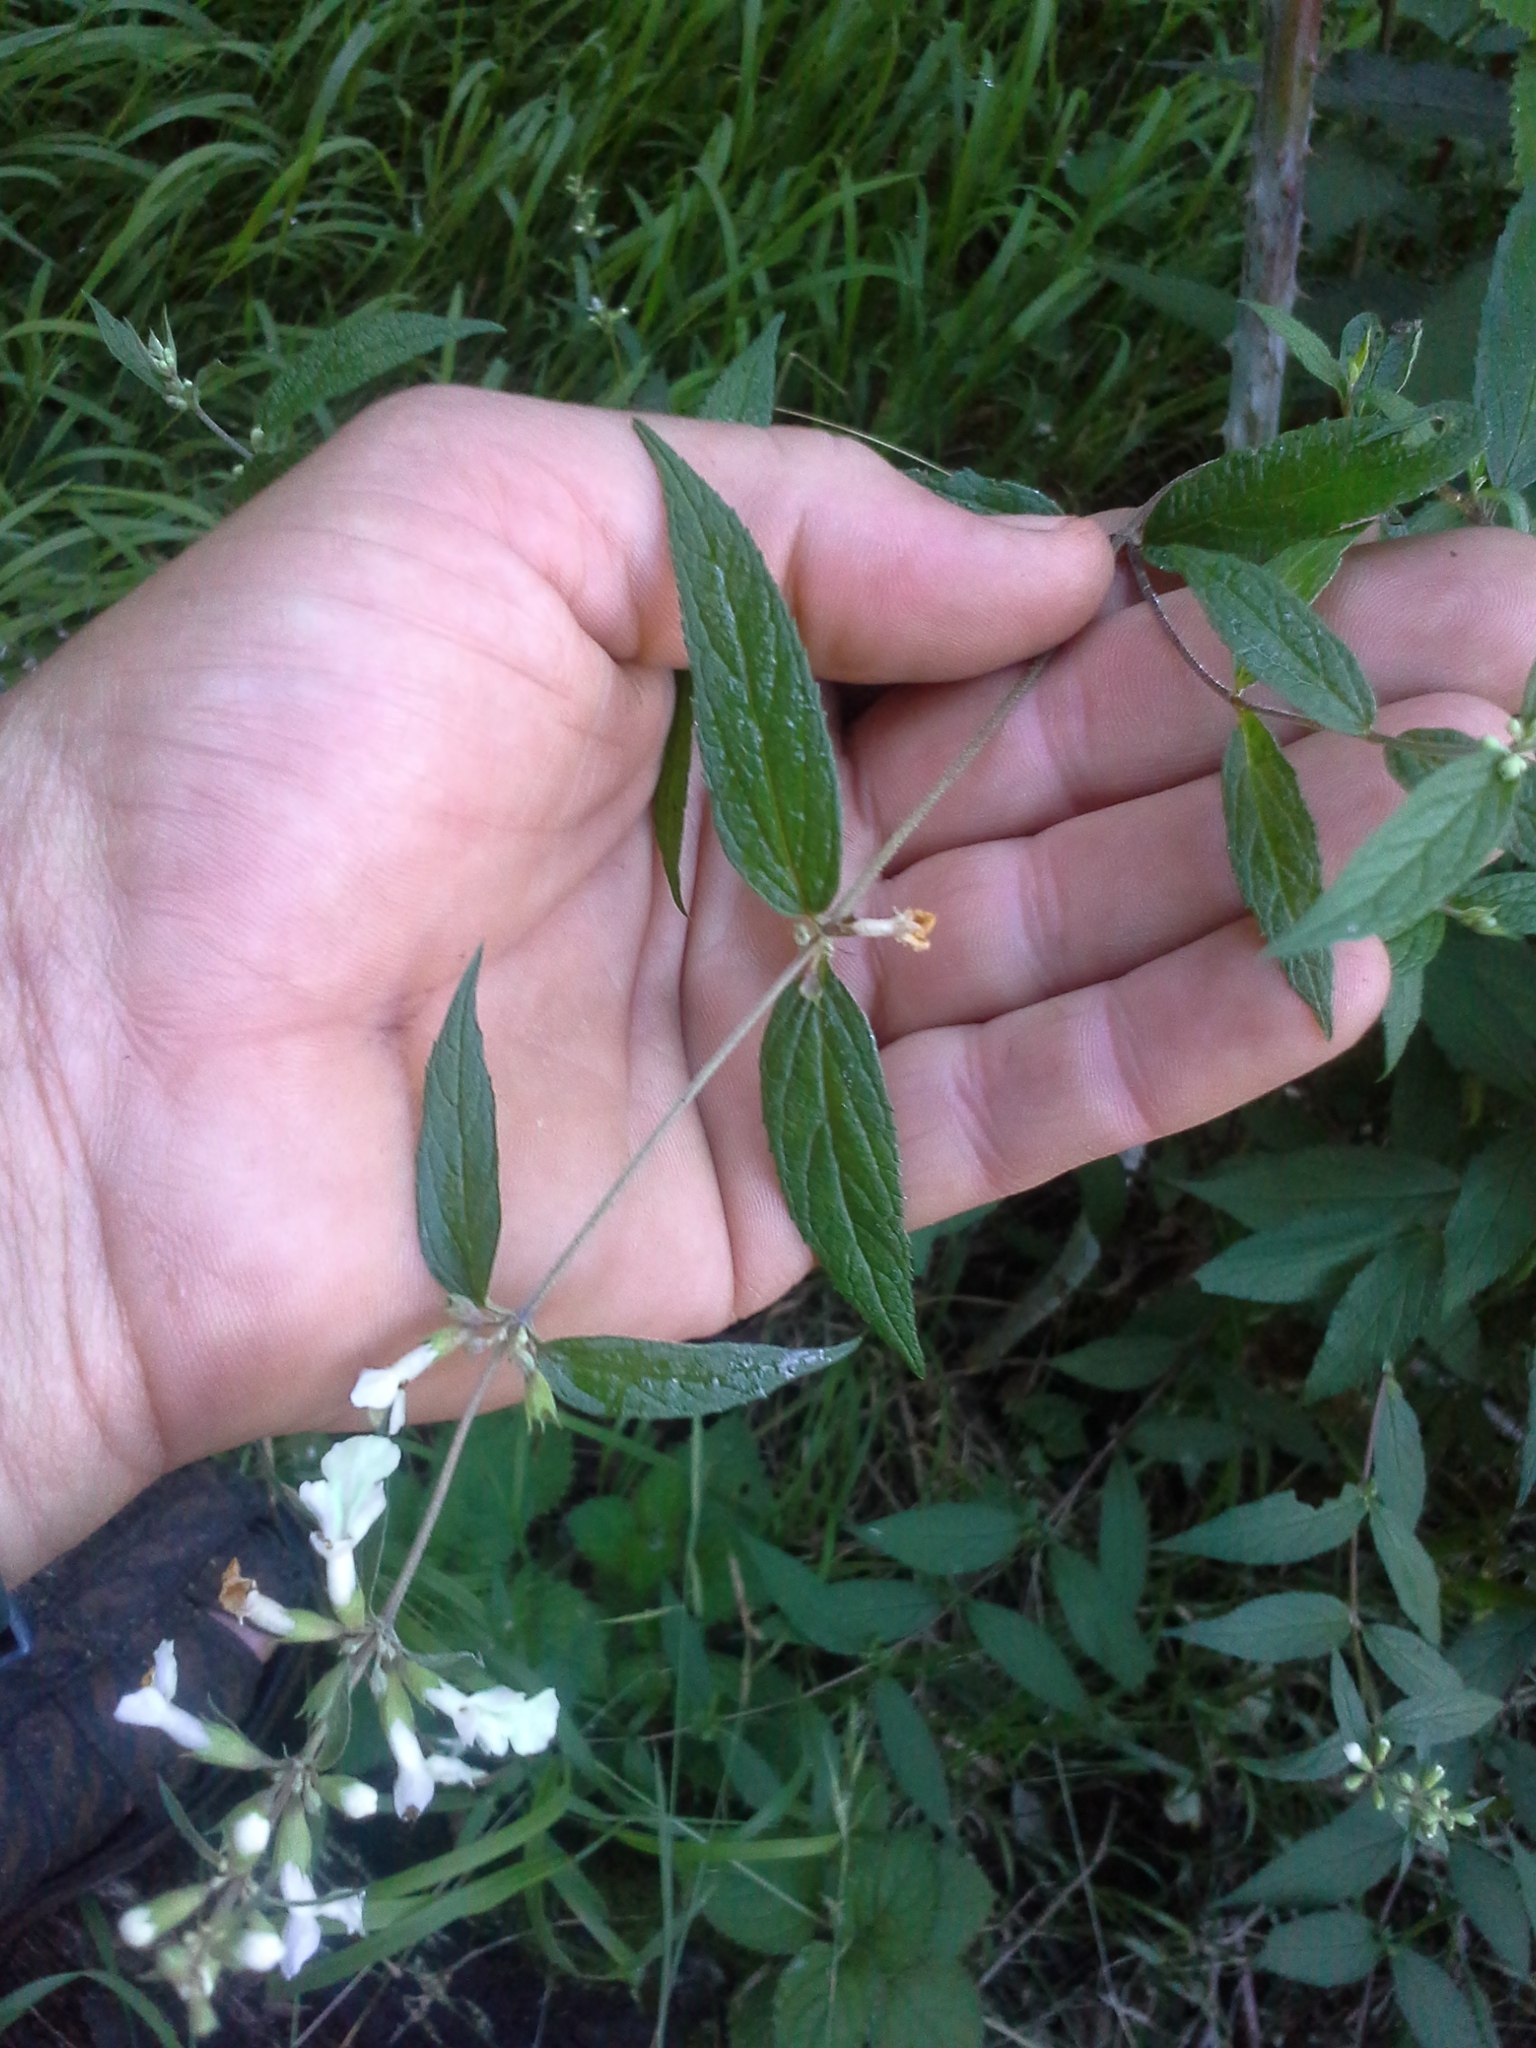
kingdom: Plantae
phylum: Tracheophyta
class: Magnoliopsida
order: Lamiales
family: Lamiaceae
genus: Stachys
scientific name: Stachys caffra
